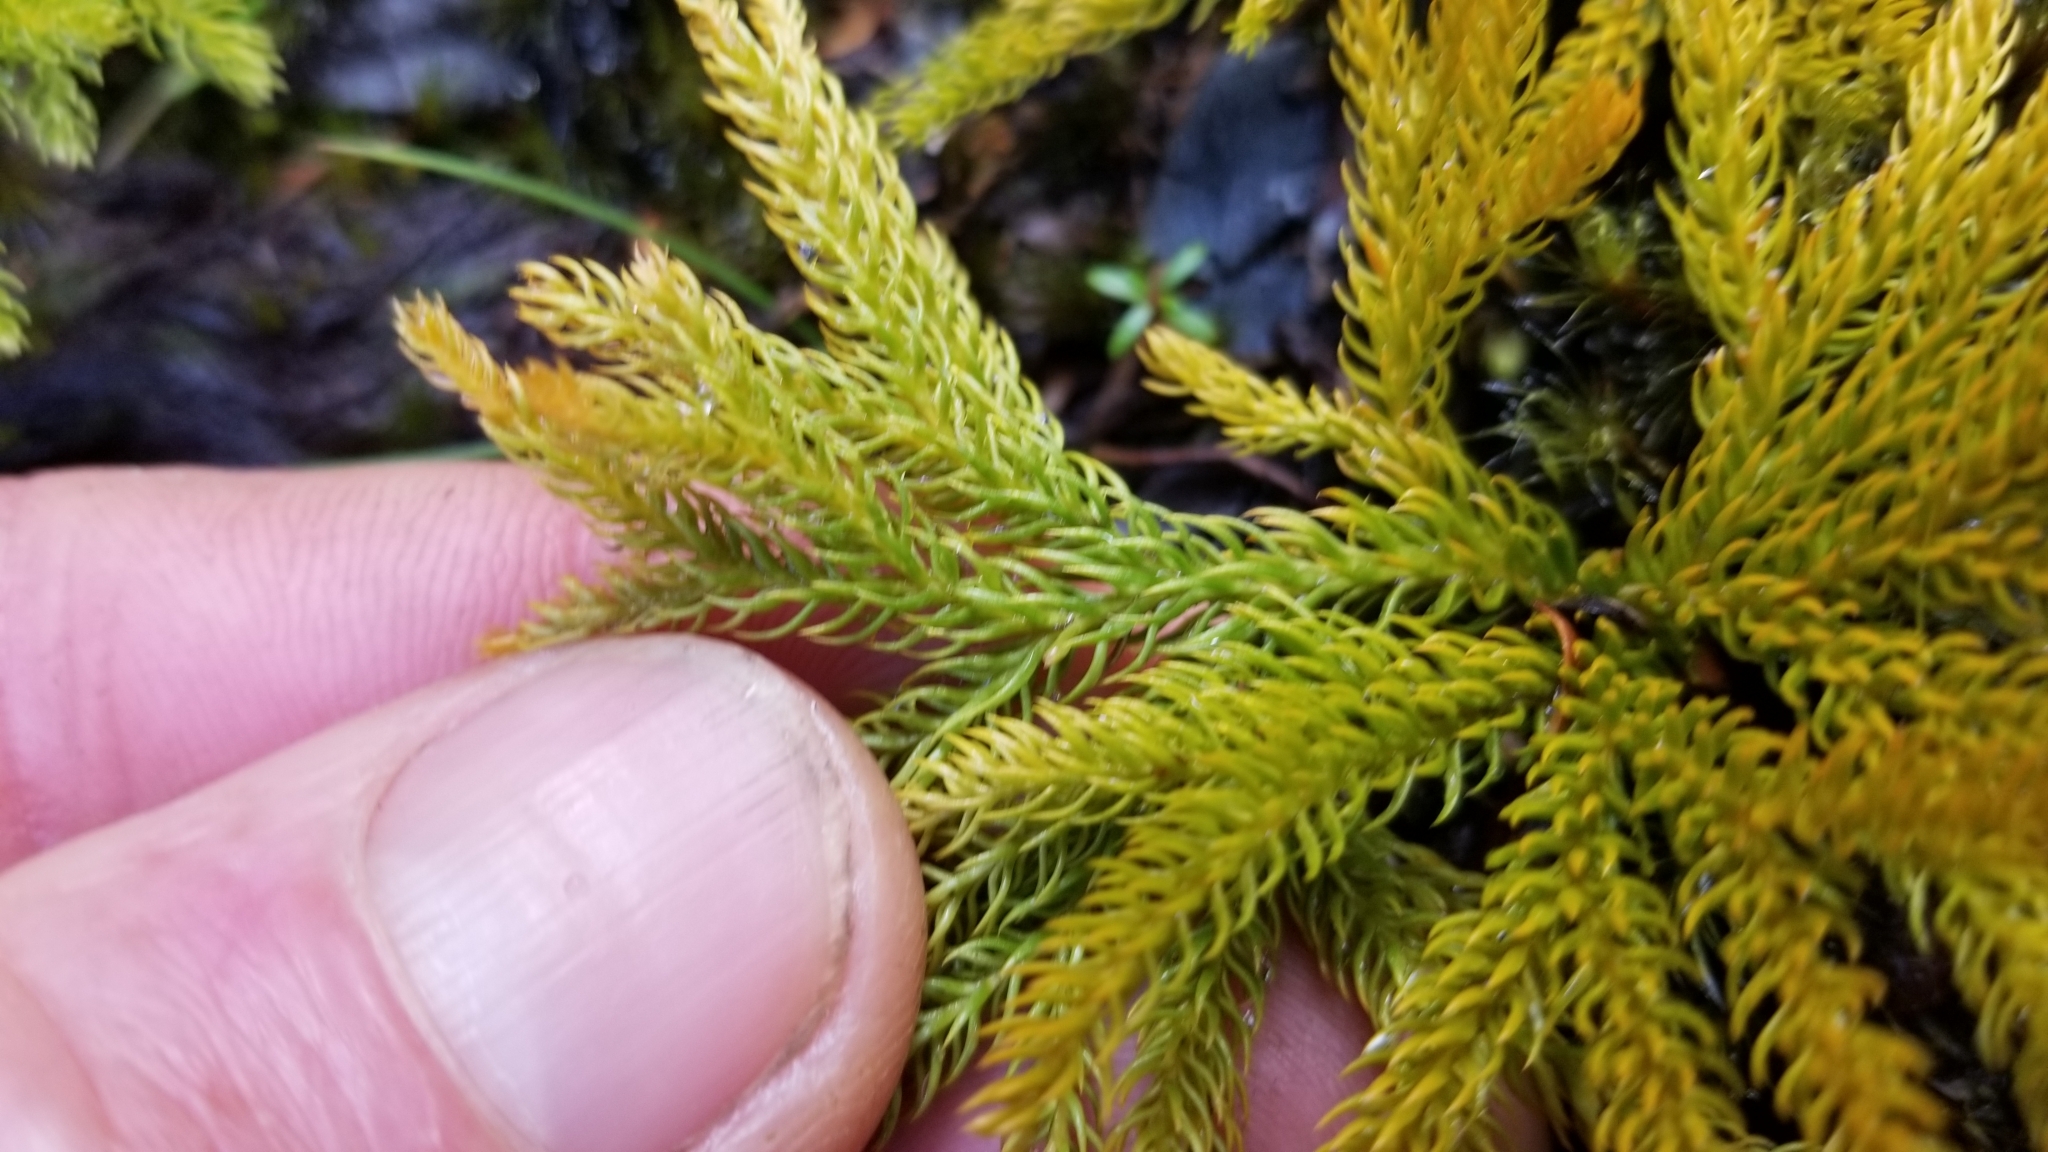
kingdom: Plantae
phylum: Tracheophyta
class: Lycopodiopsida
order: Lycopodiales
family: Lycopodiaceae
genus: Austrolycopodium
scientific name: Austrolycopodium fastigiatum
